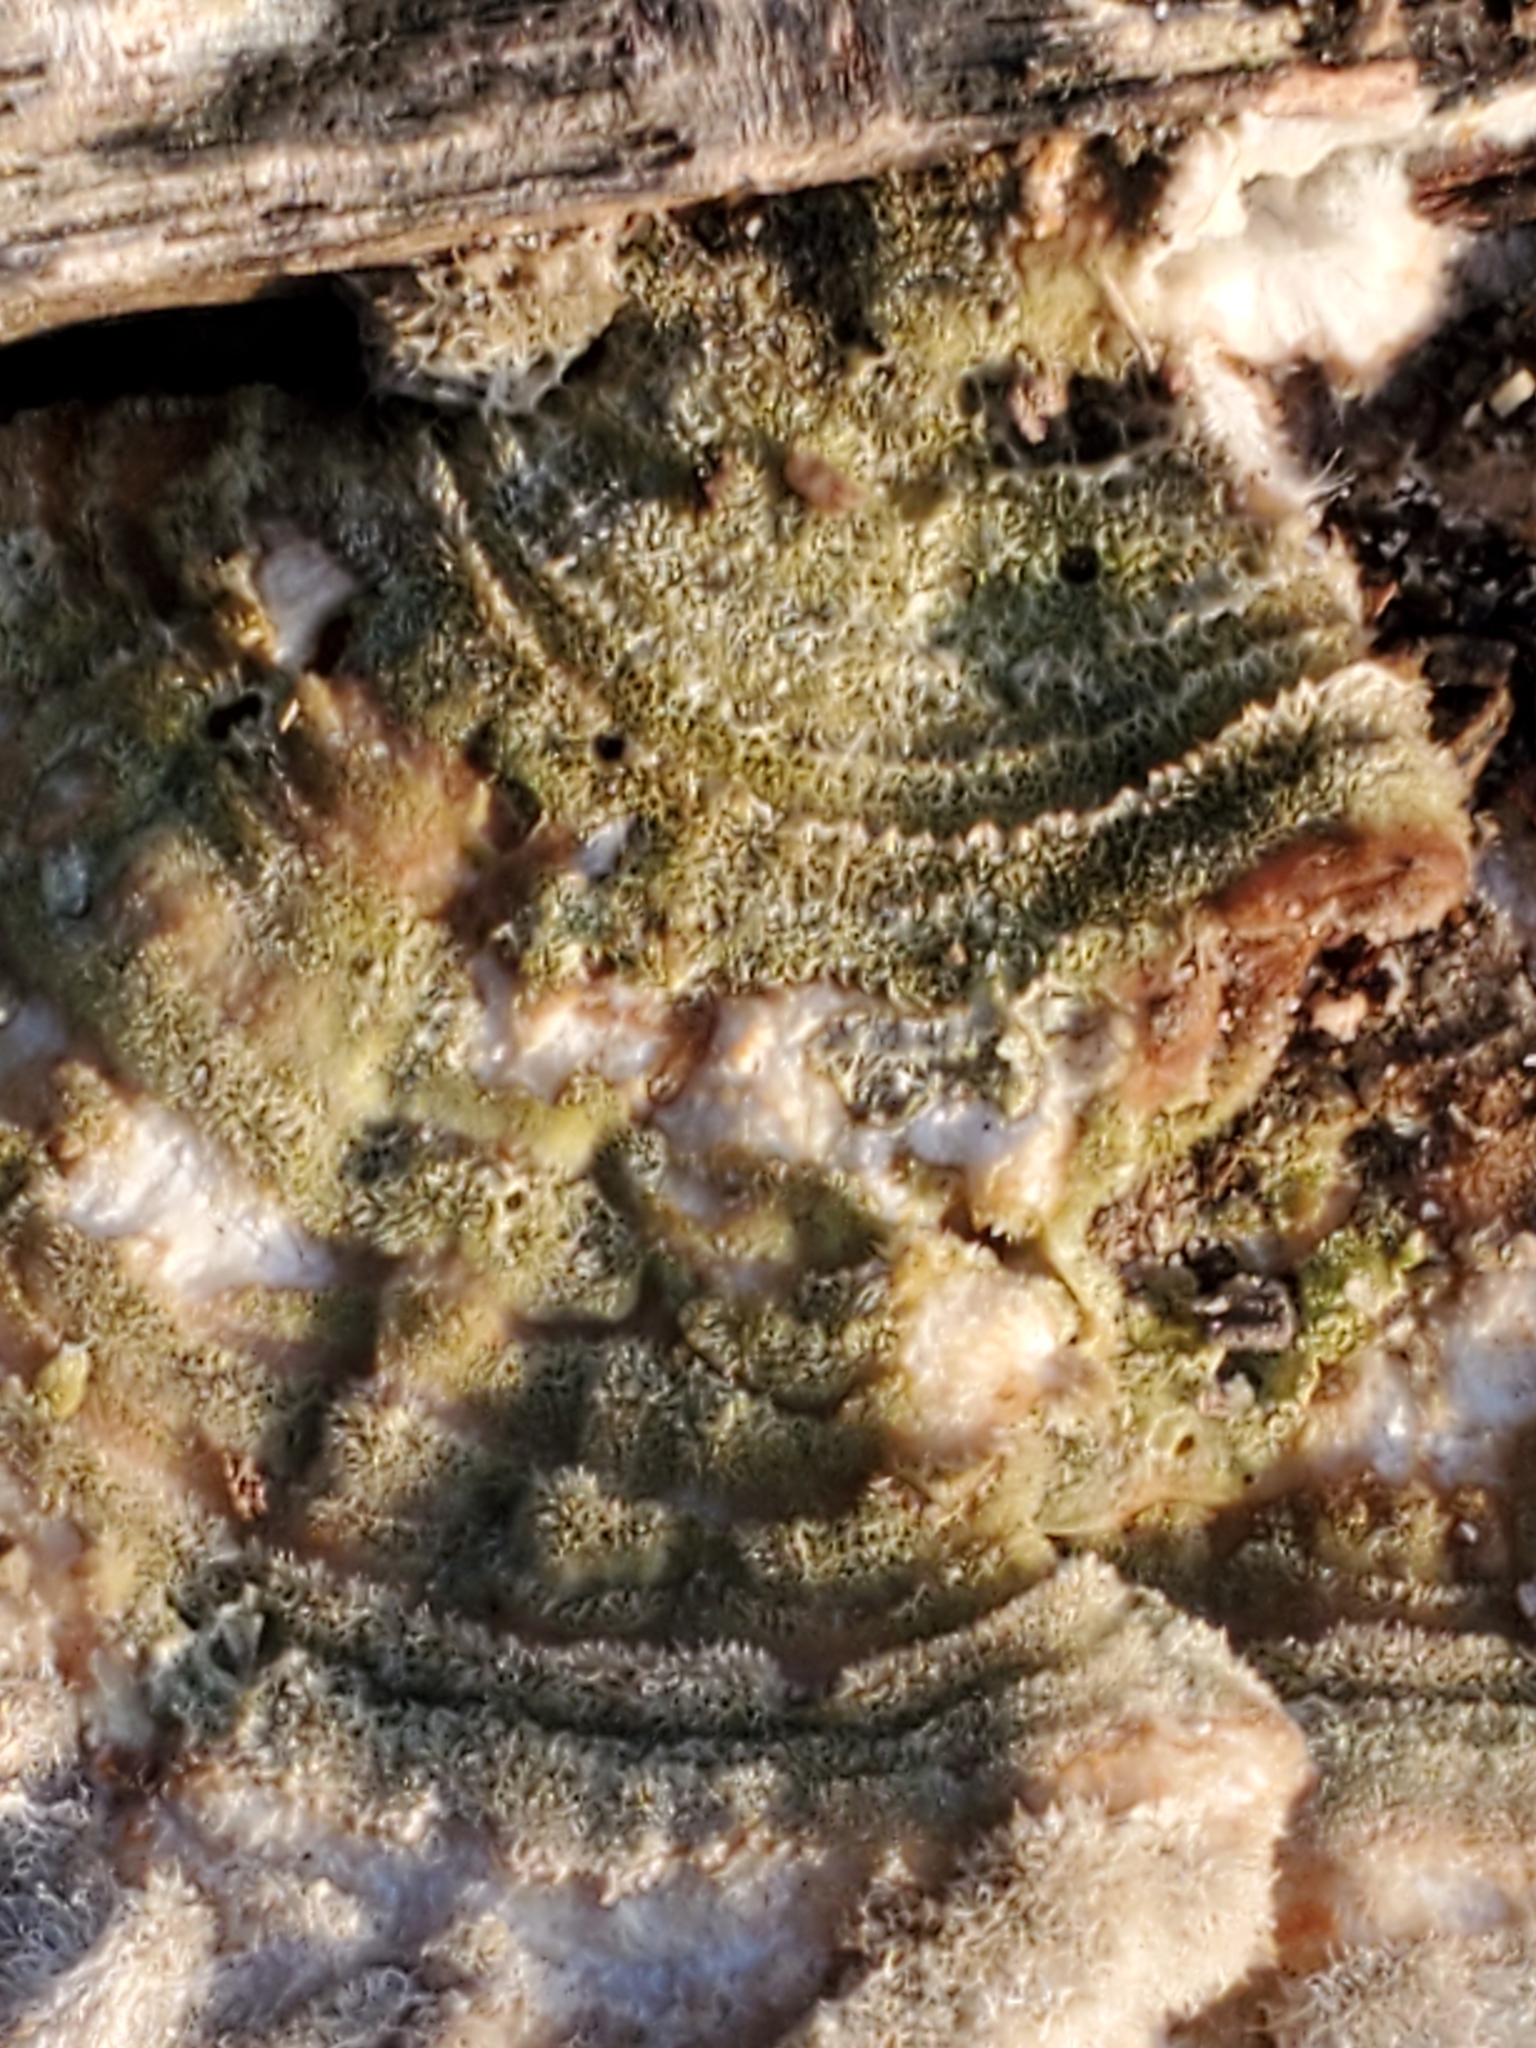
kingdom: Fungi
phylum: Basidiomycota
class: Agaricomycetes
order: Polyporales
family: Polyporaceae
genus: Lenzites
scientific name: Lenzites betulinus
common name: Birch mazegill
